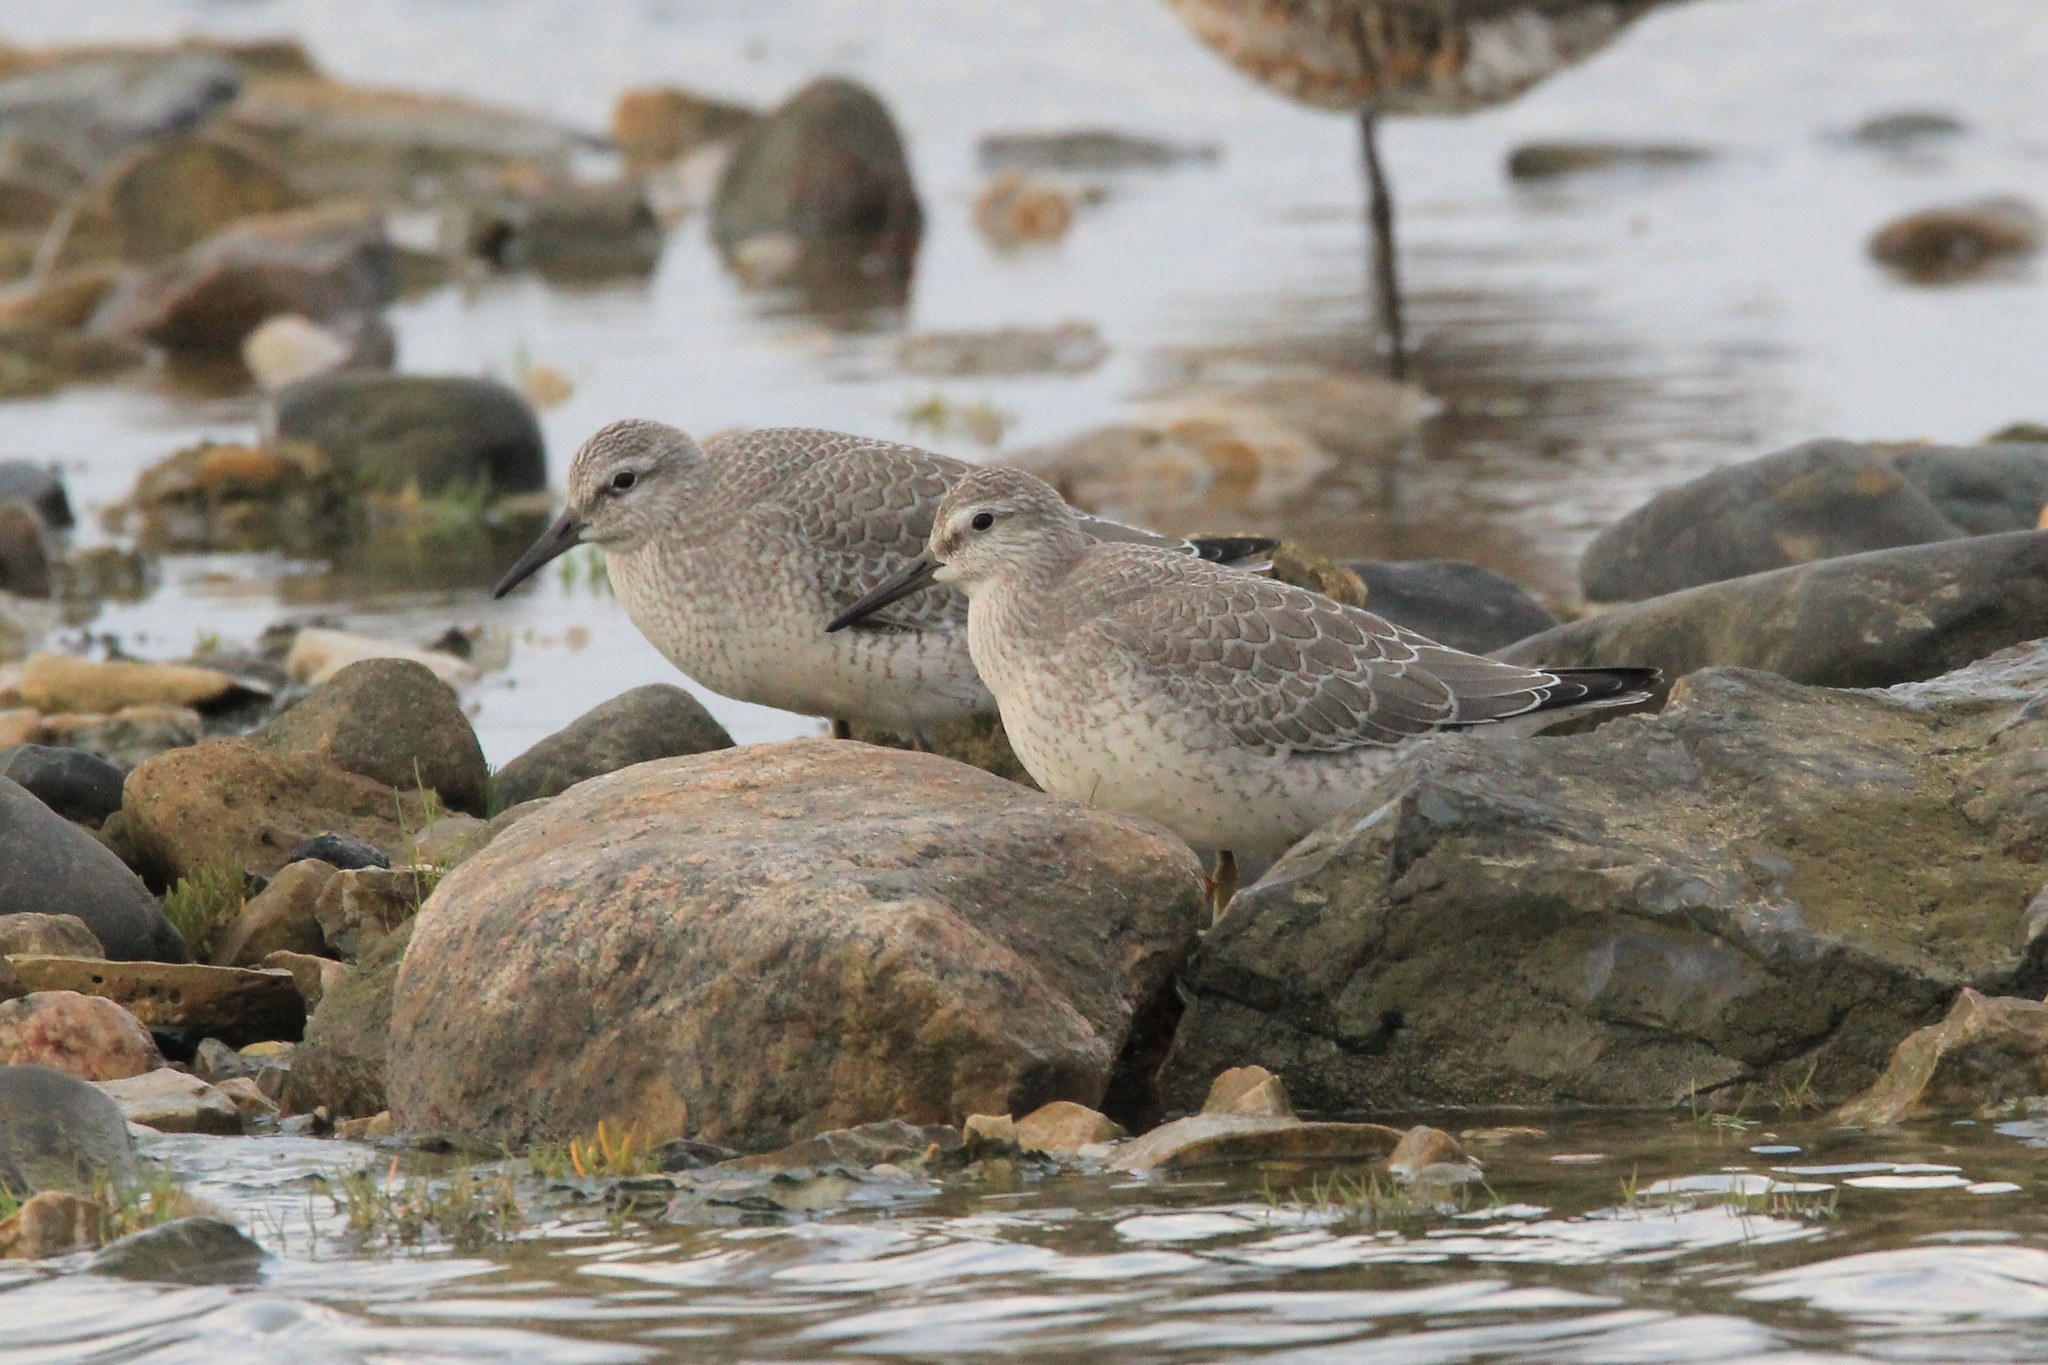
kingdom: Animalia
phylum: Chordata
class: Aves
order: Charadriiformes
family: Scolopacidae
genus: Calidris
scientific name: Calidris canutus
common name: Red knot
